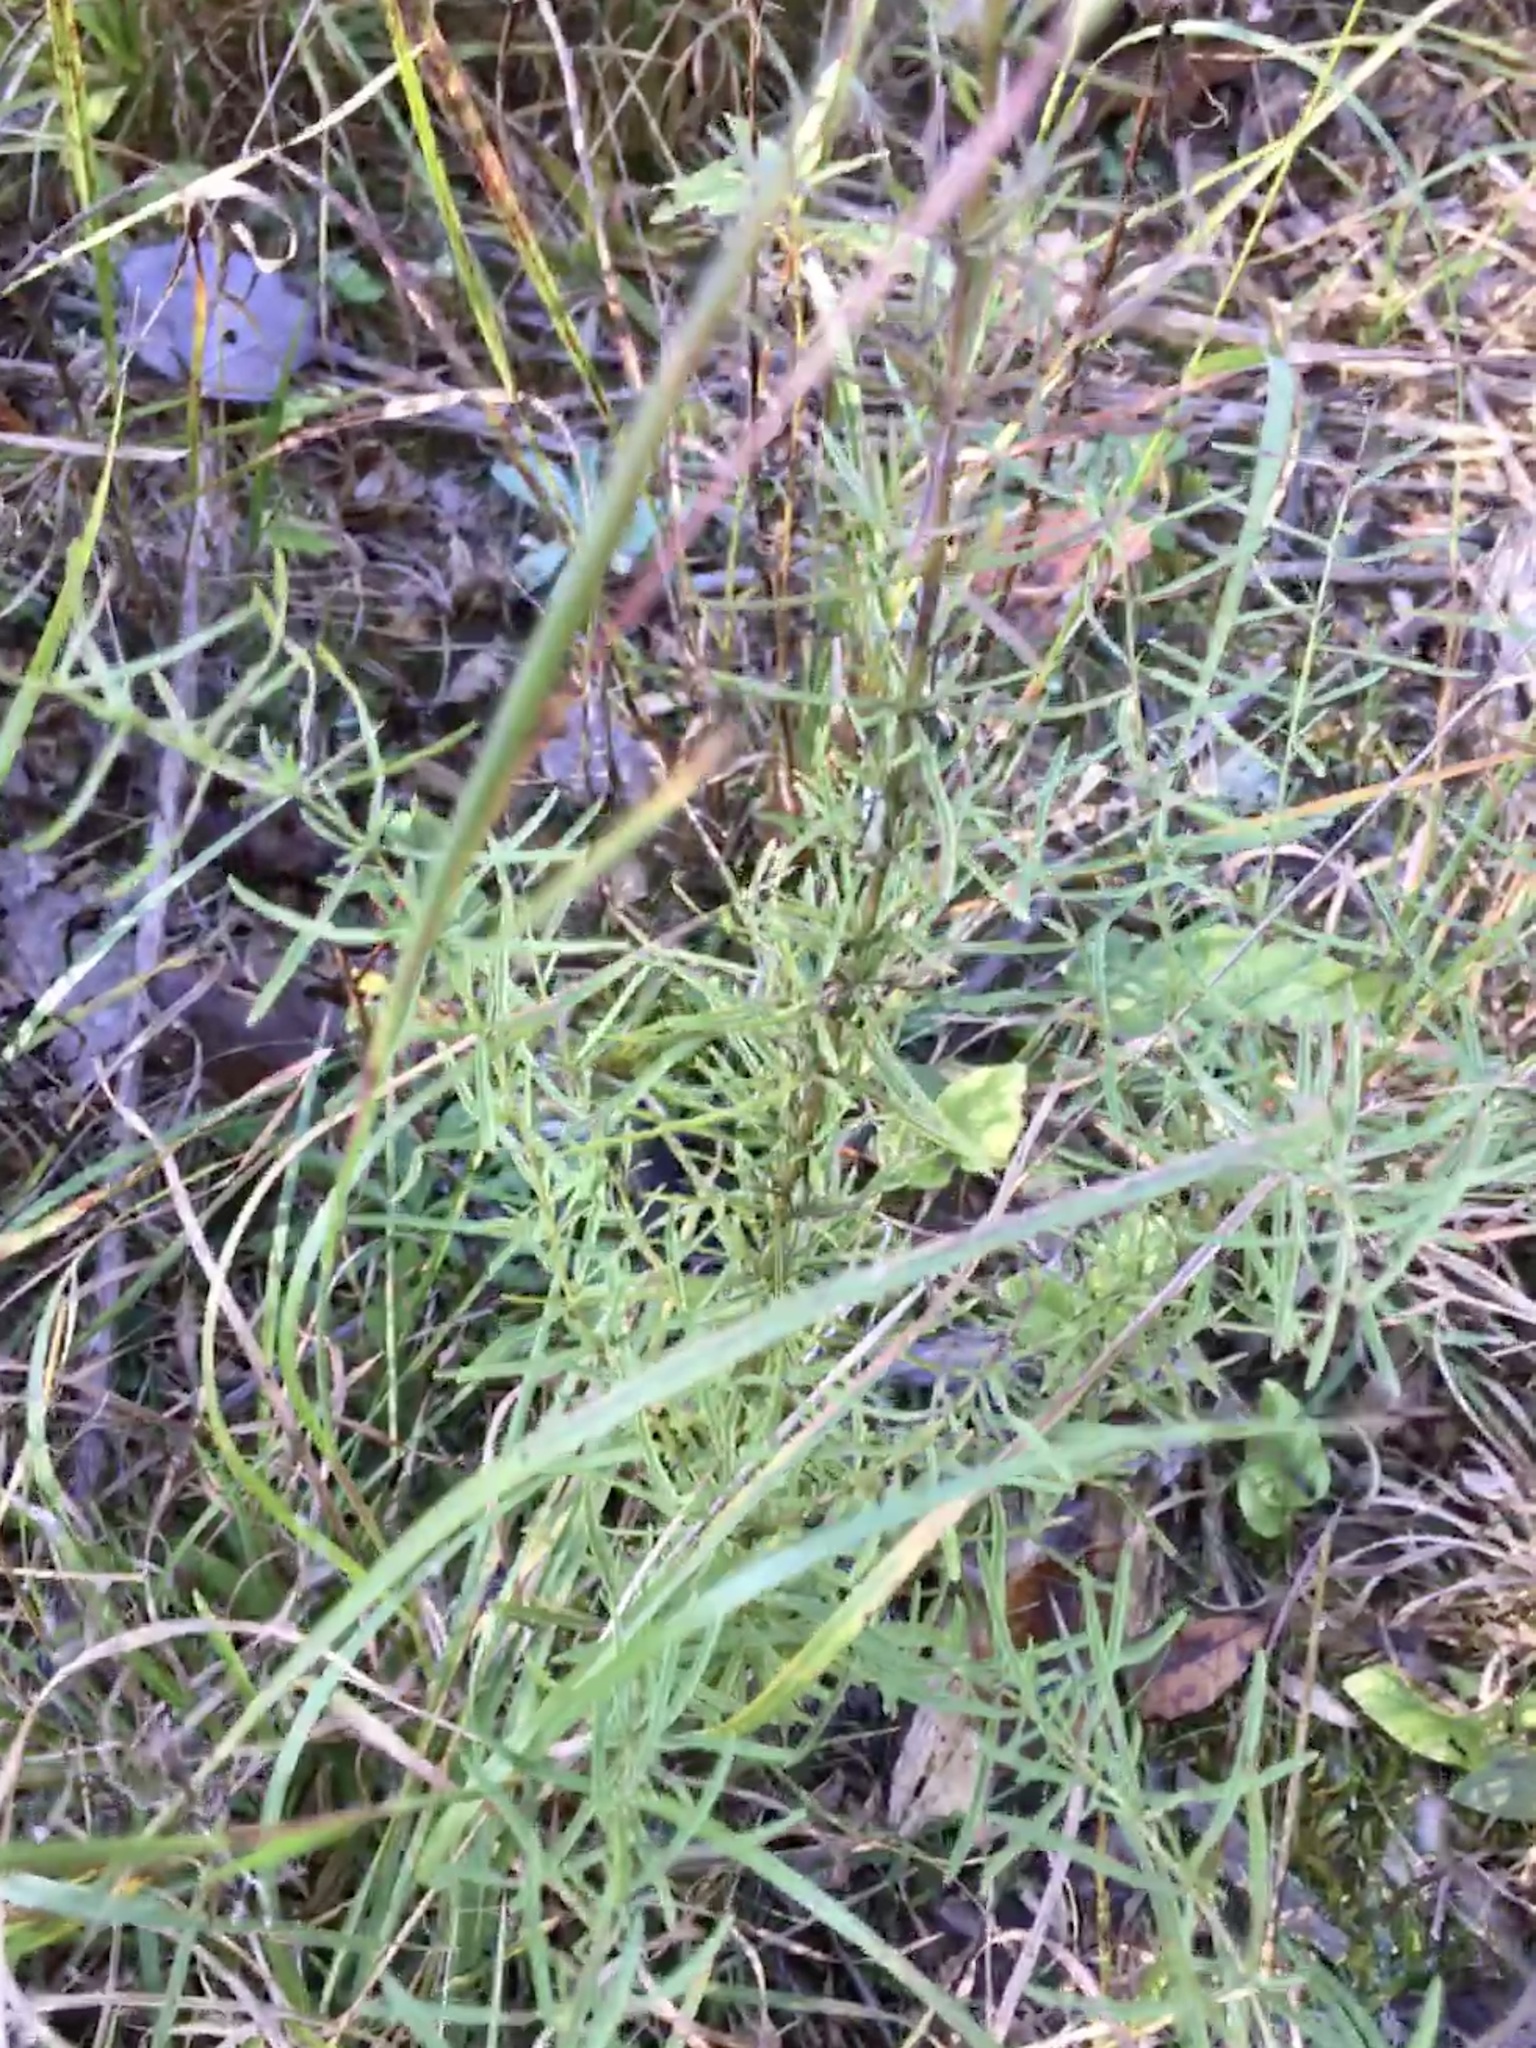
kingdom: Plantae
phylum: Tracheophyta
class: Magnoliopsida
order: Asterales
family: Asteraceae
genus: Eupatorium
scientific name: Eupatorium hyssopifolium
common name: Hyssop-leaf thoroughwort
